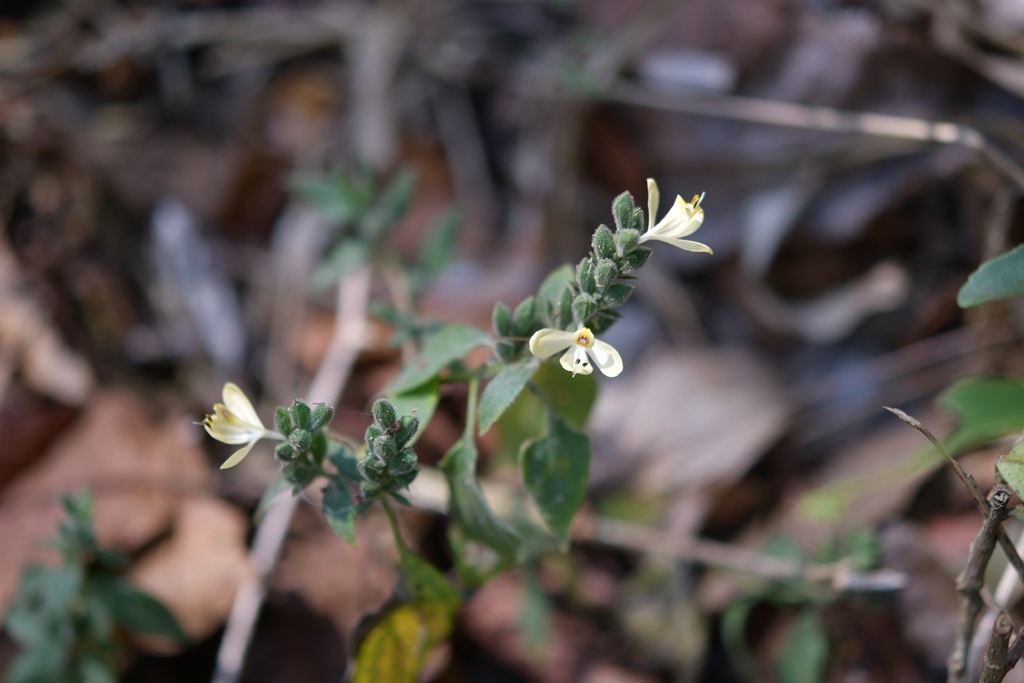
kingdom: Plantae
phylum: Tracheophyta
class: Magnoliopsida
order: Lamiales
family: Acanthaceae
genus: Henrya
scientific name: Henrya insularis
